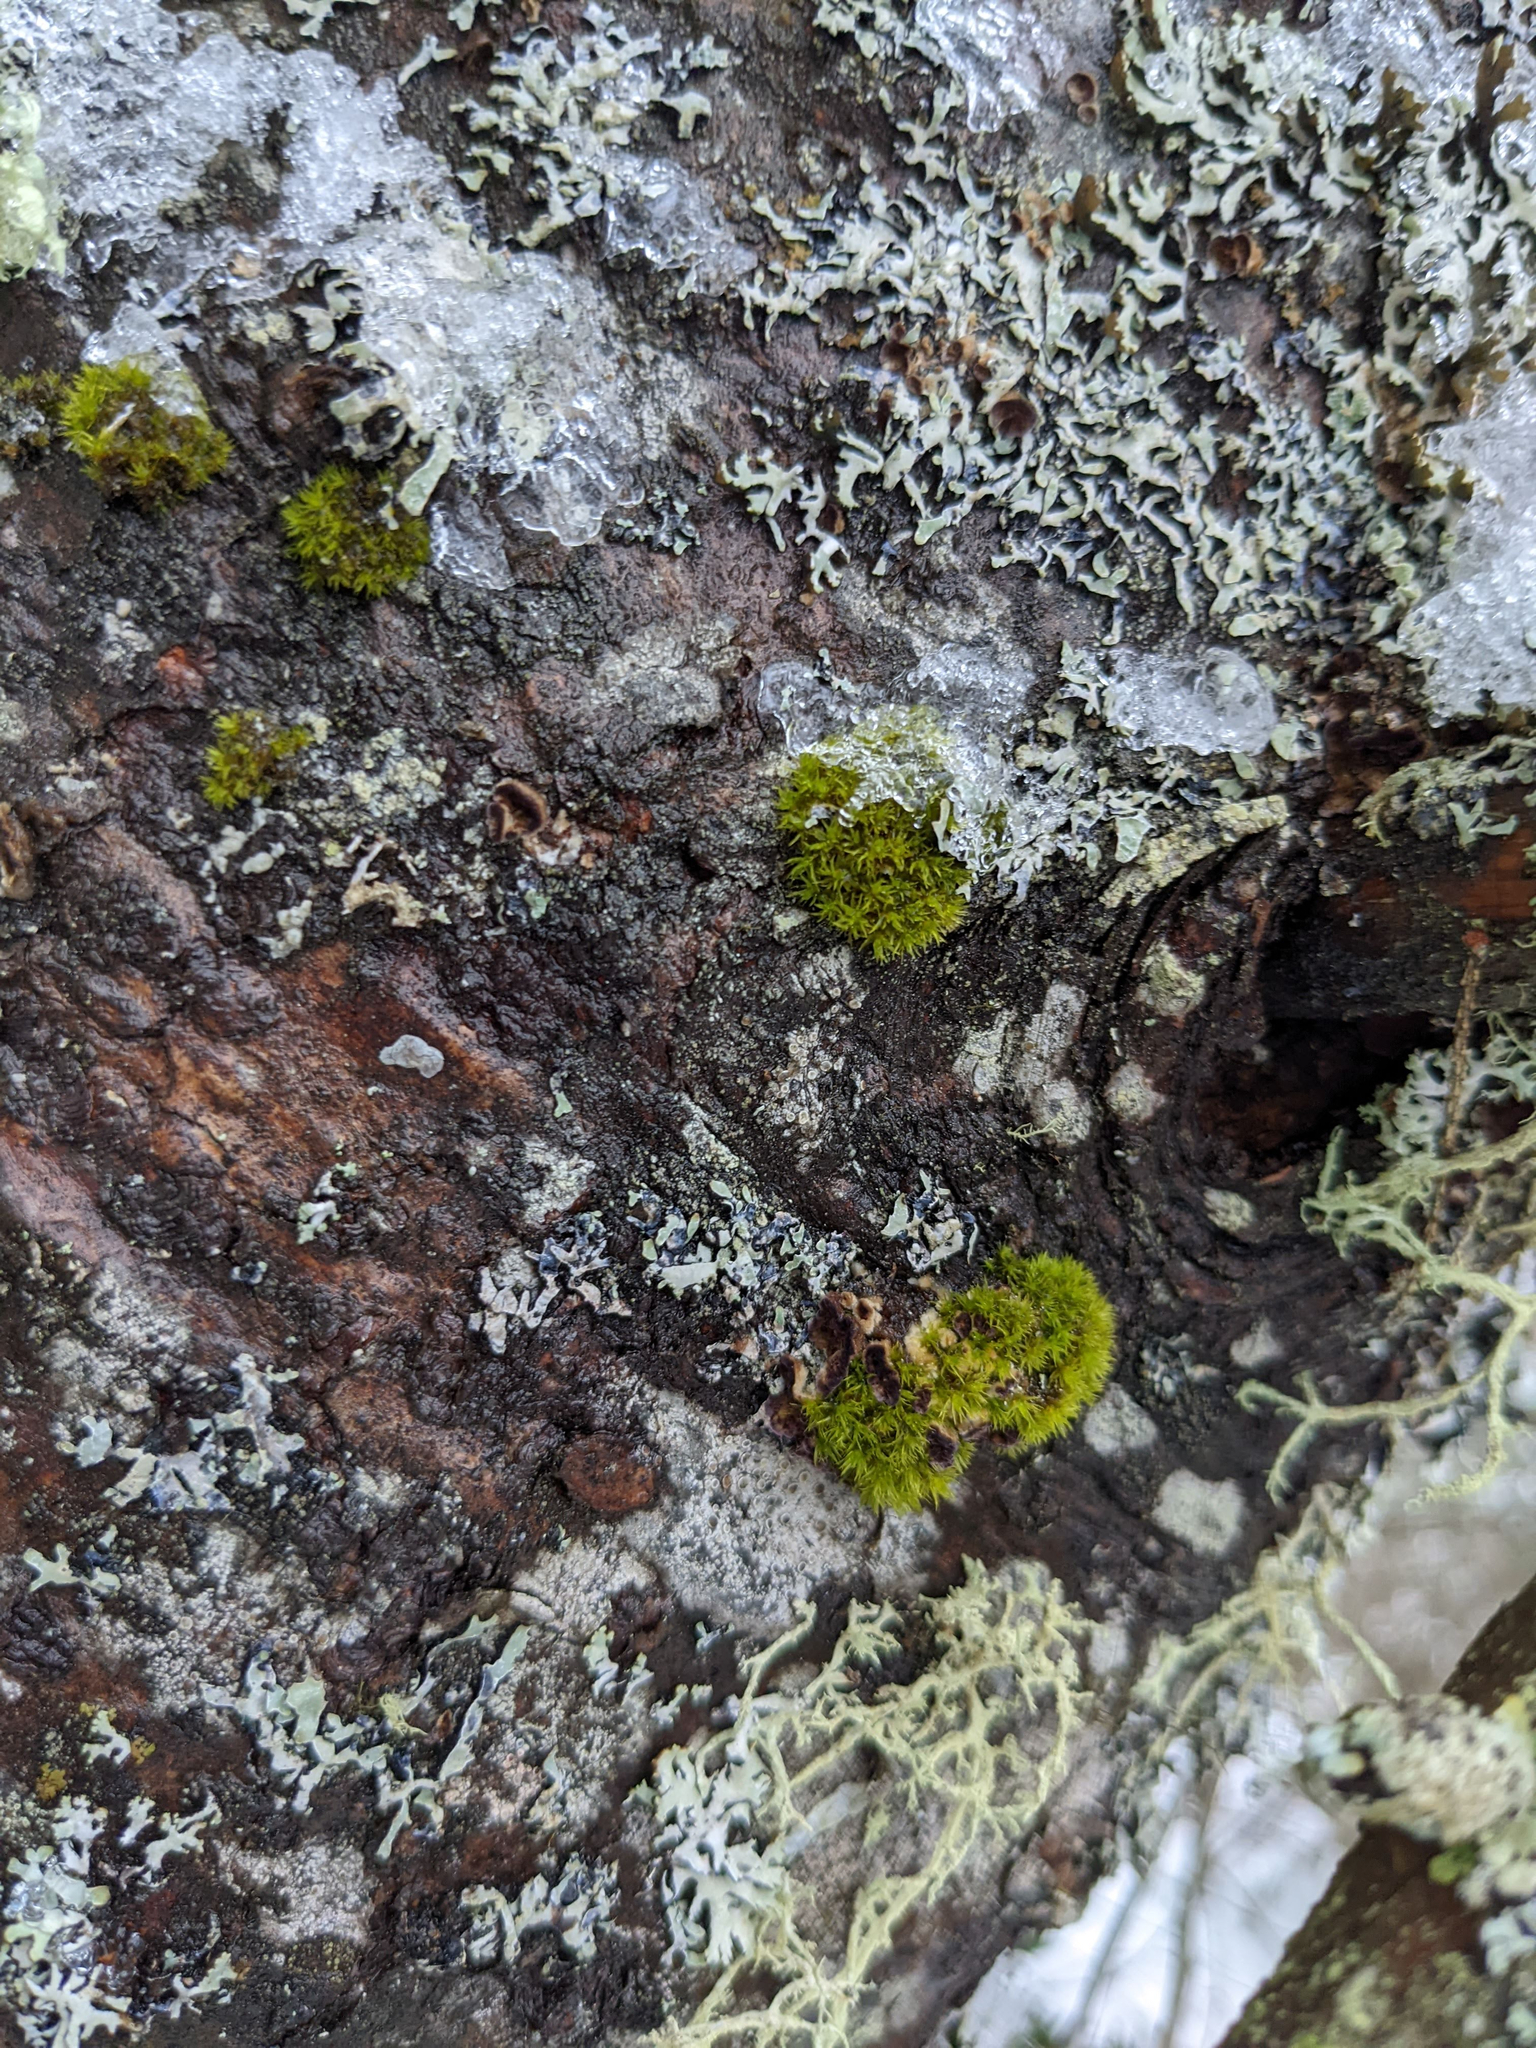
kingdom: Plantae
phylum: Bryophyta
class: Bryopsida
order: Orthotrichales
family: Orthotrichaceae
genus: Ulota
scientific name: Ulota crispa
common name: Crisped pincushion moss
